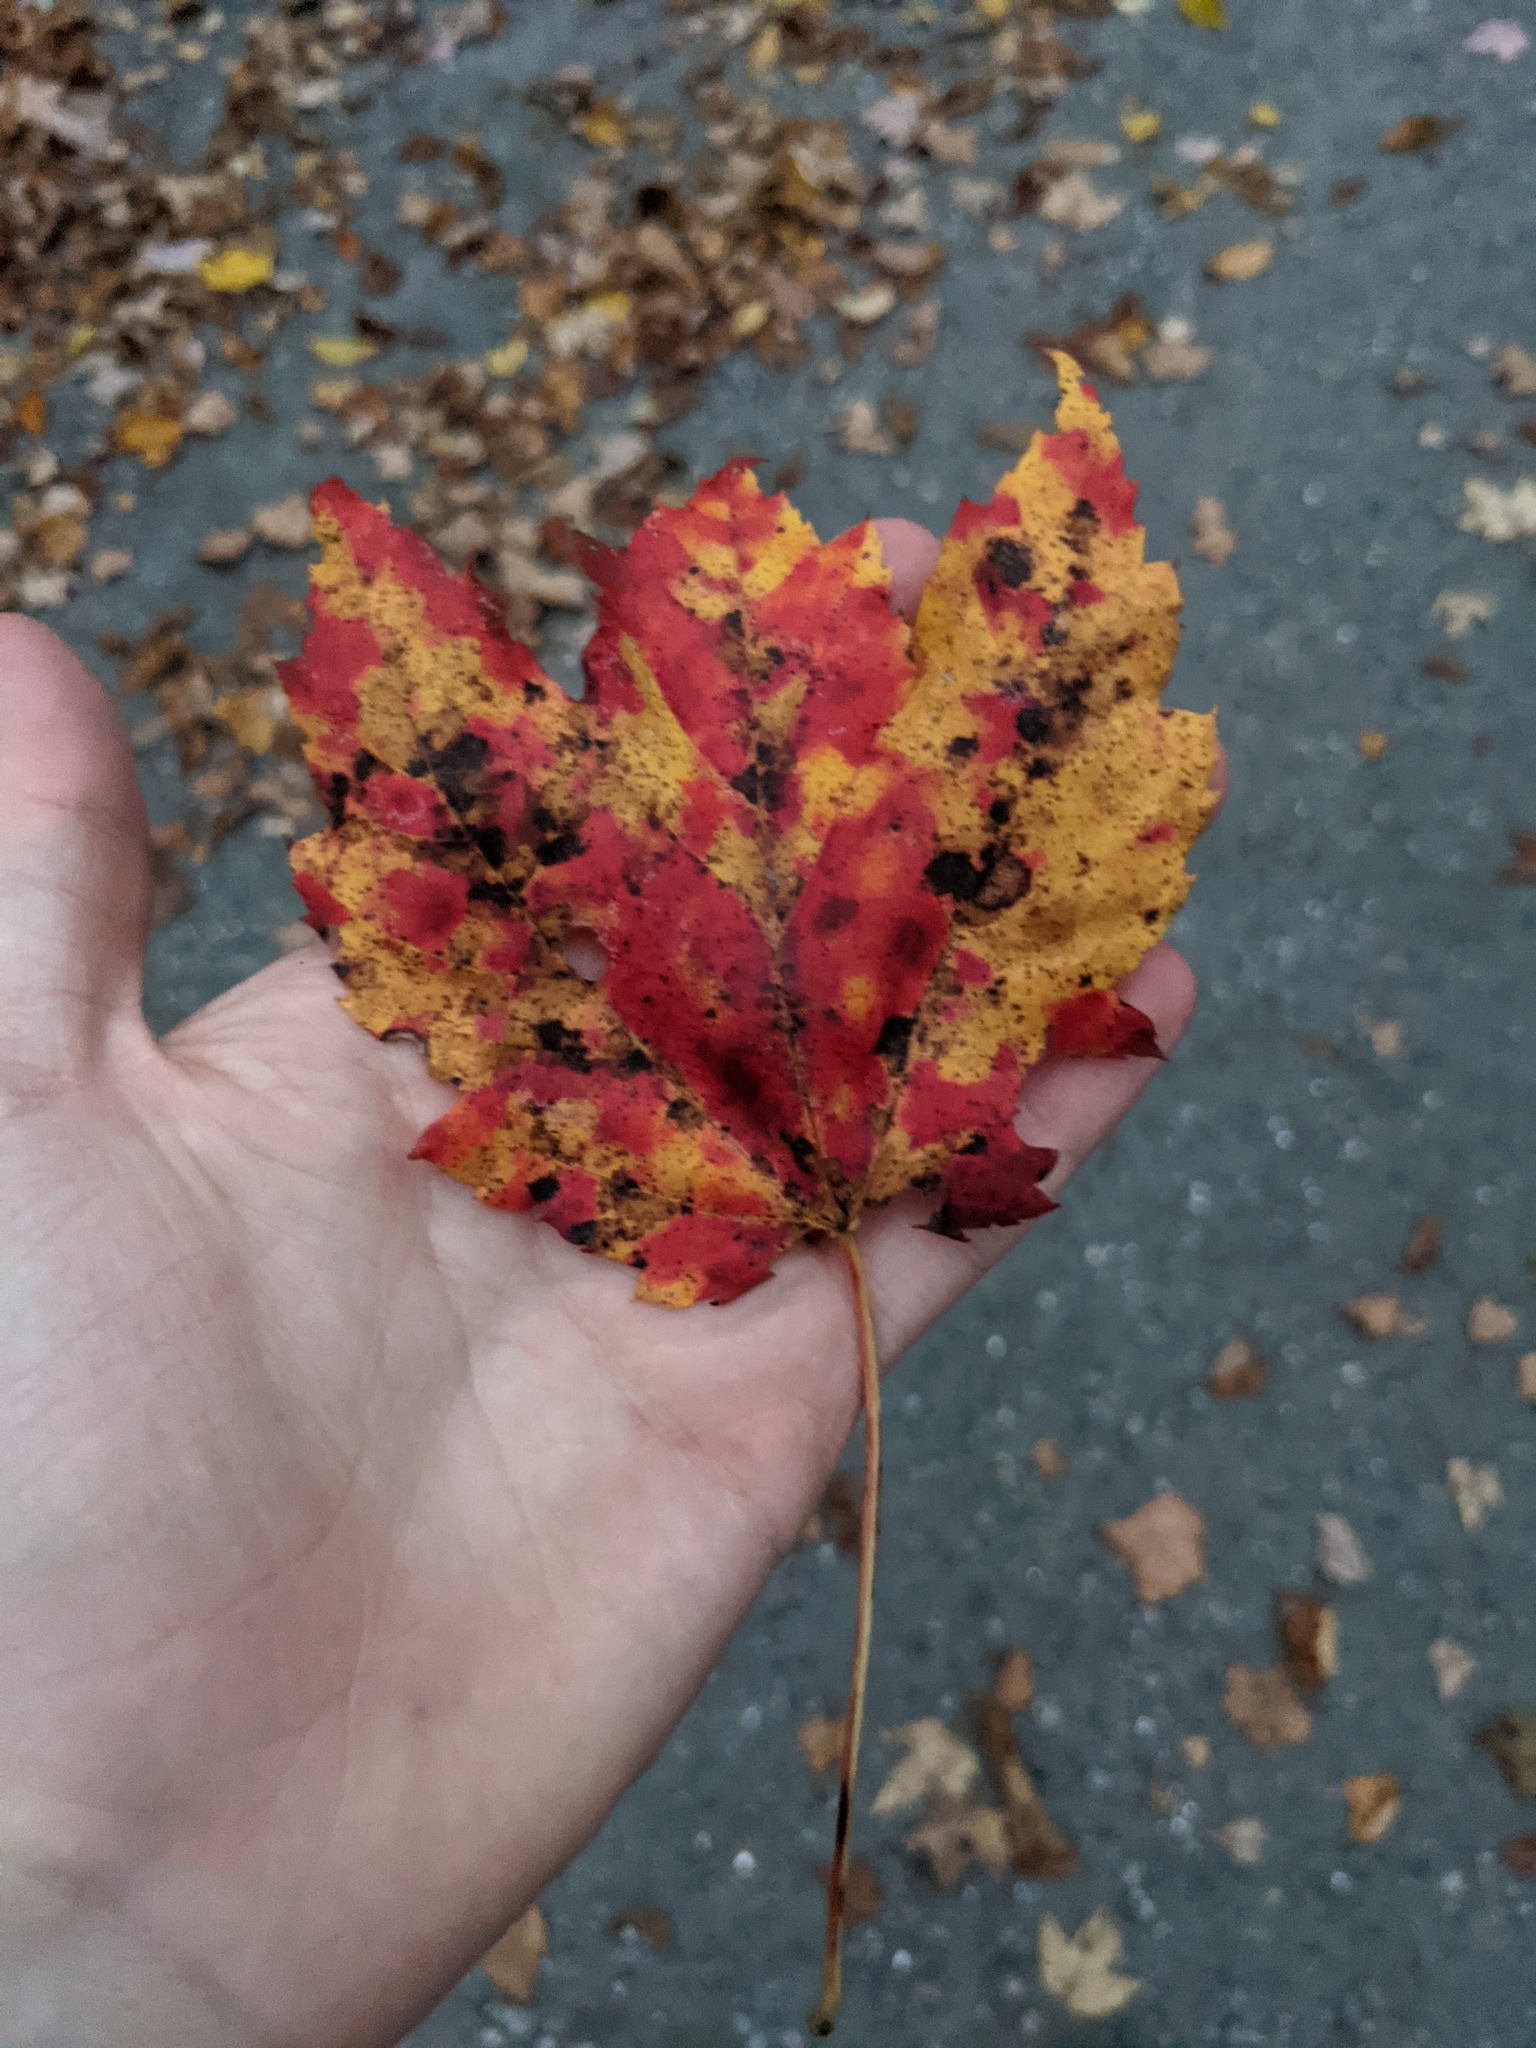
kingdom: Plantae
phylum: Tracheophyta
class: Magnoliopsida
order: Sapindales
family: Sapindaceae
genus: Acer
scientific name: Acer rubrum
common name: Red maple
